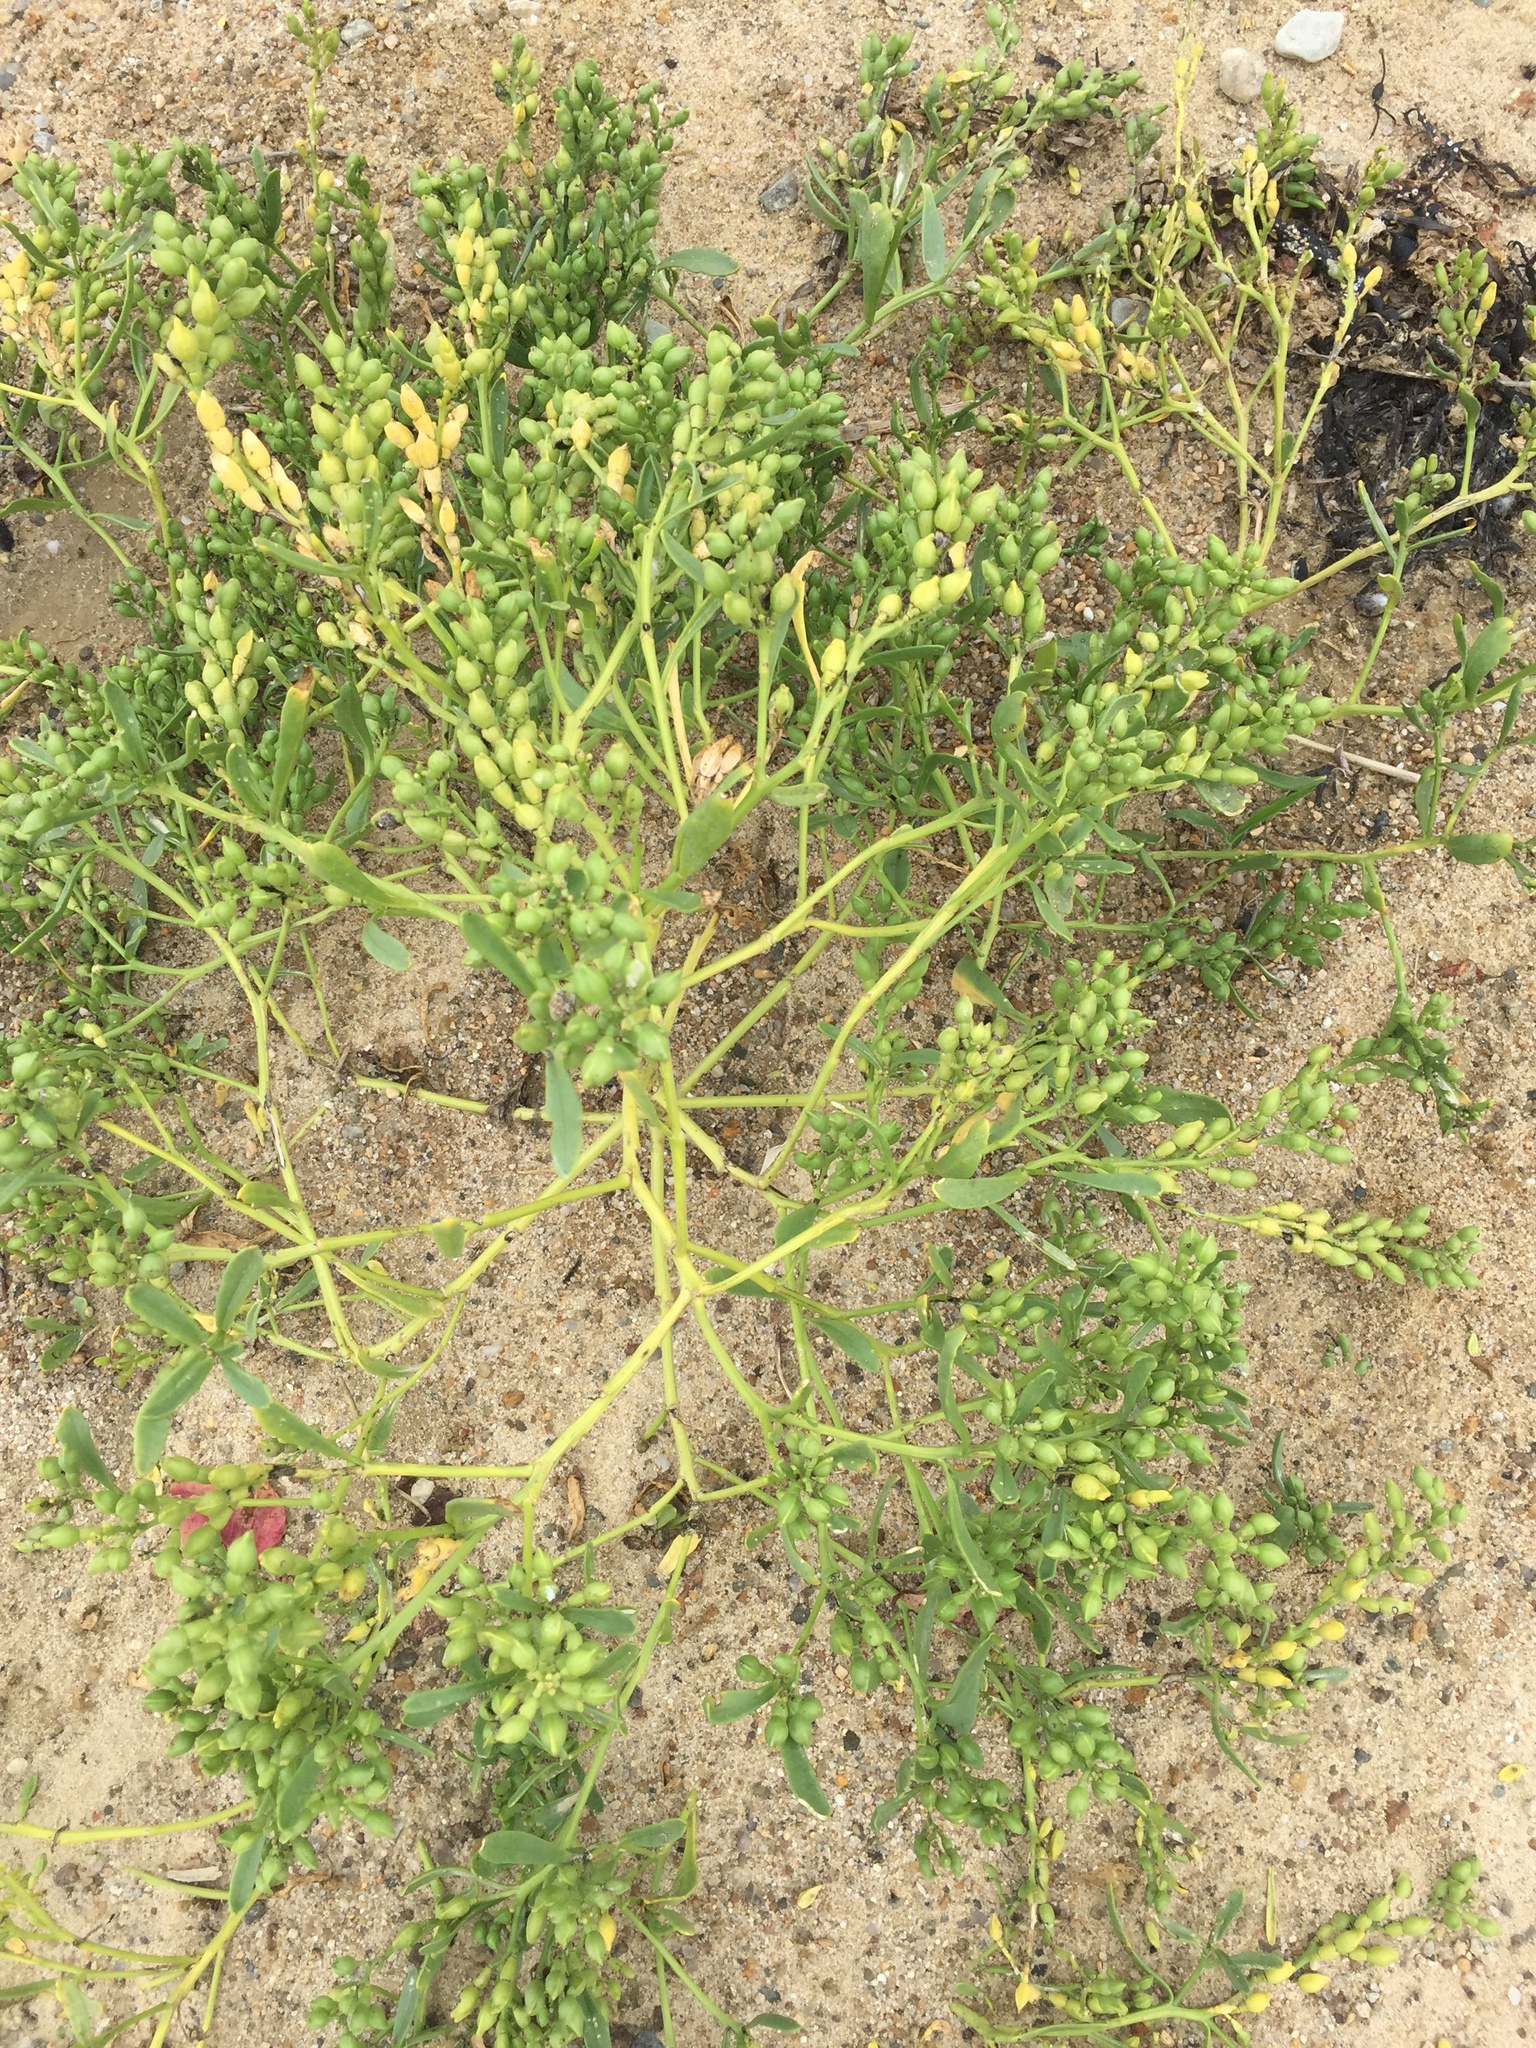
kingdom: Plantae
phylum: Tracheophyta
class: Magnoliopsida
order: Brassicales
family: Brassicaceae
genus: Cakile
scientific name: Cakile edentula
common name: American sea rocket
